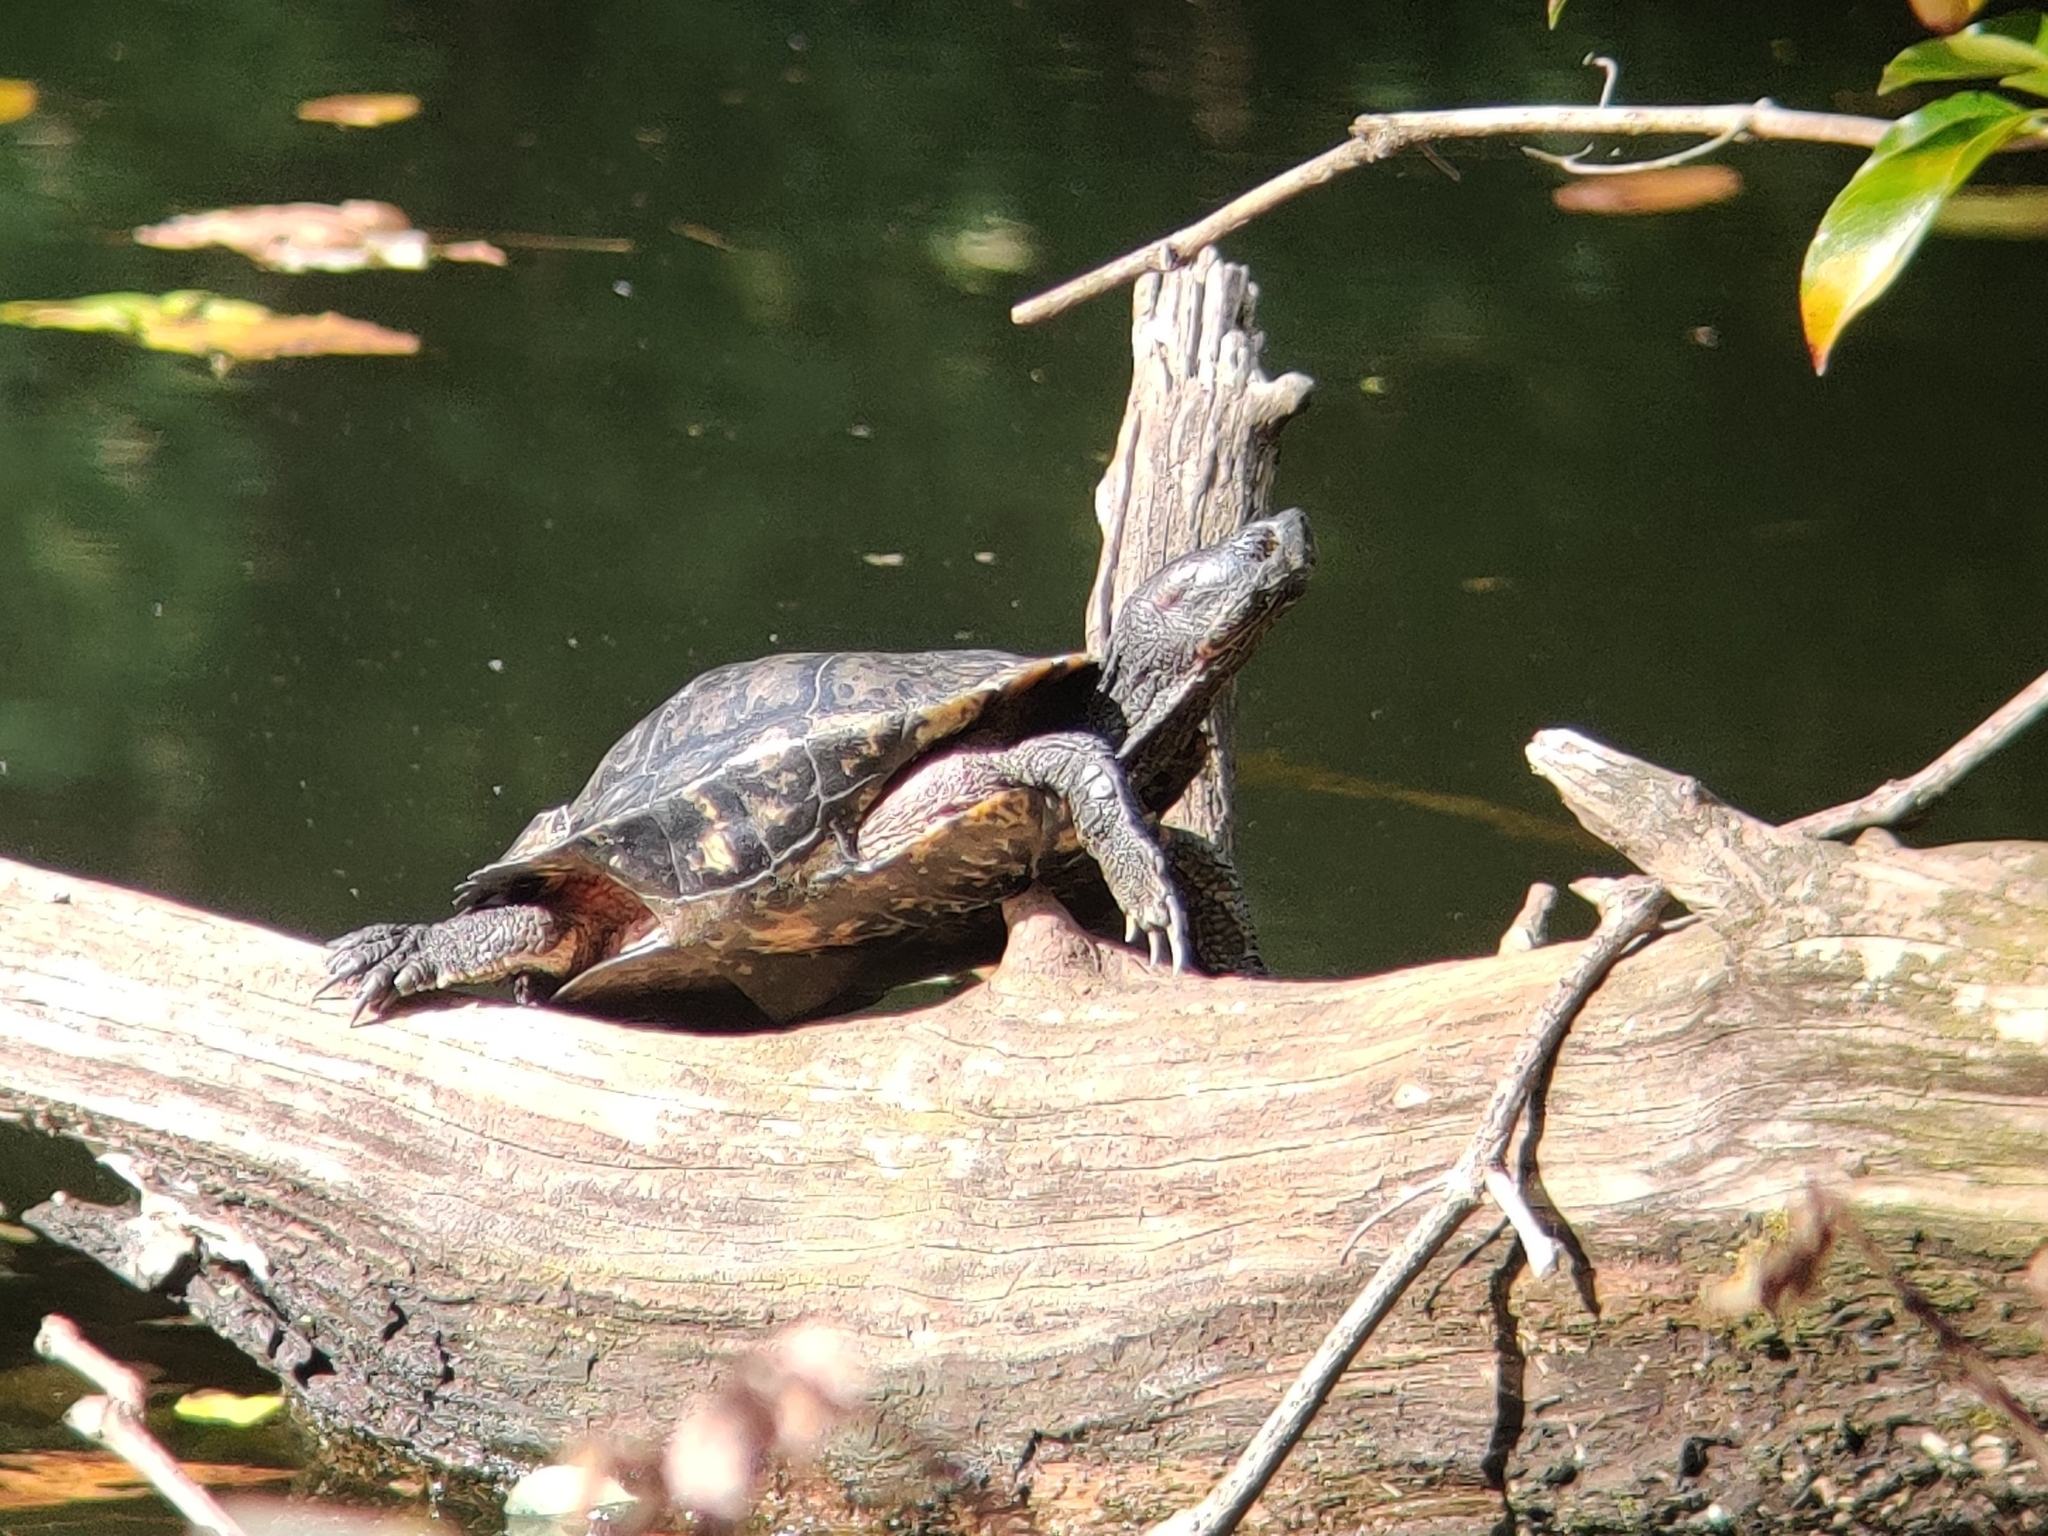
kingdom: Animalia
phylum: Chordata
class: Testudines
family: Emydidae
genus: Trachemys
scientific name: Trachemys scripta
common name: Slider
